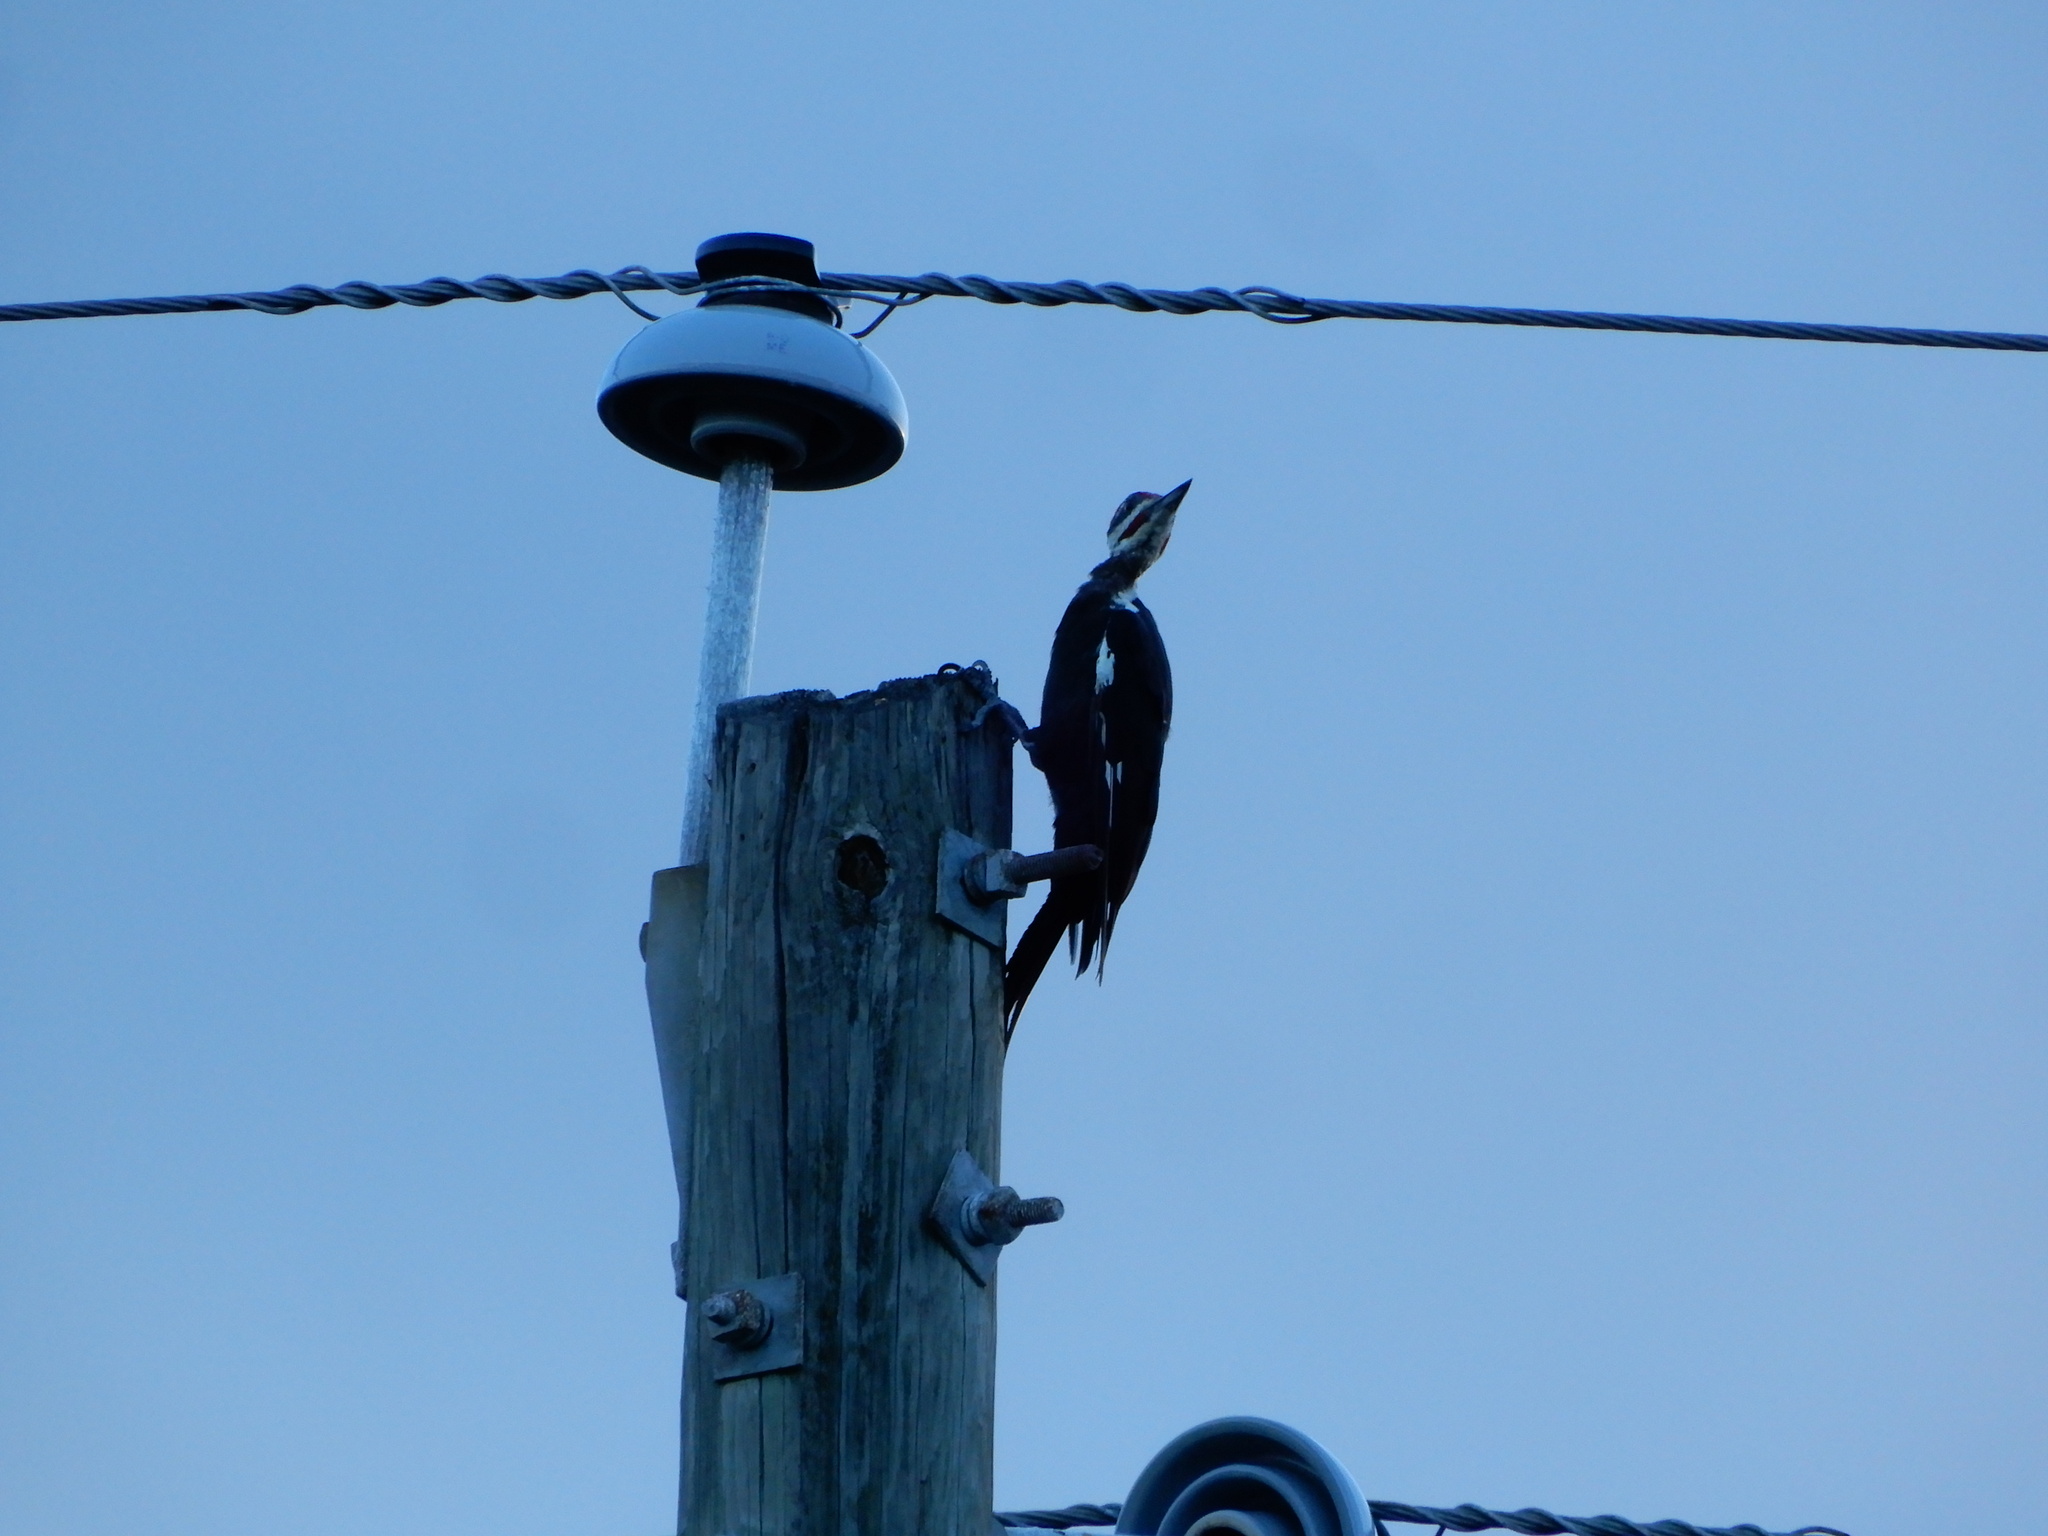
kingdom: Animalia
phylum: Chordata
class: Aves
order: Piciformes
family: Picidae
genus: Dryocopus
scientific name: Dryocopus pileatus
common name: Pileated woodpecker
